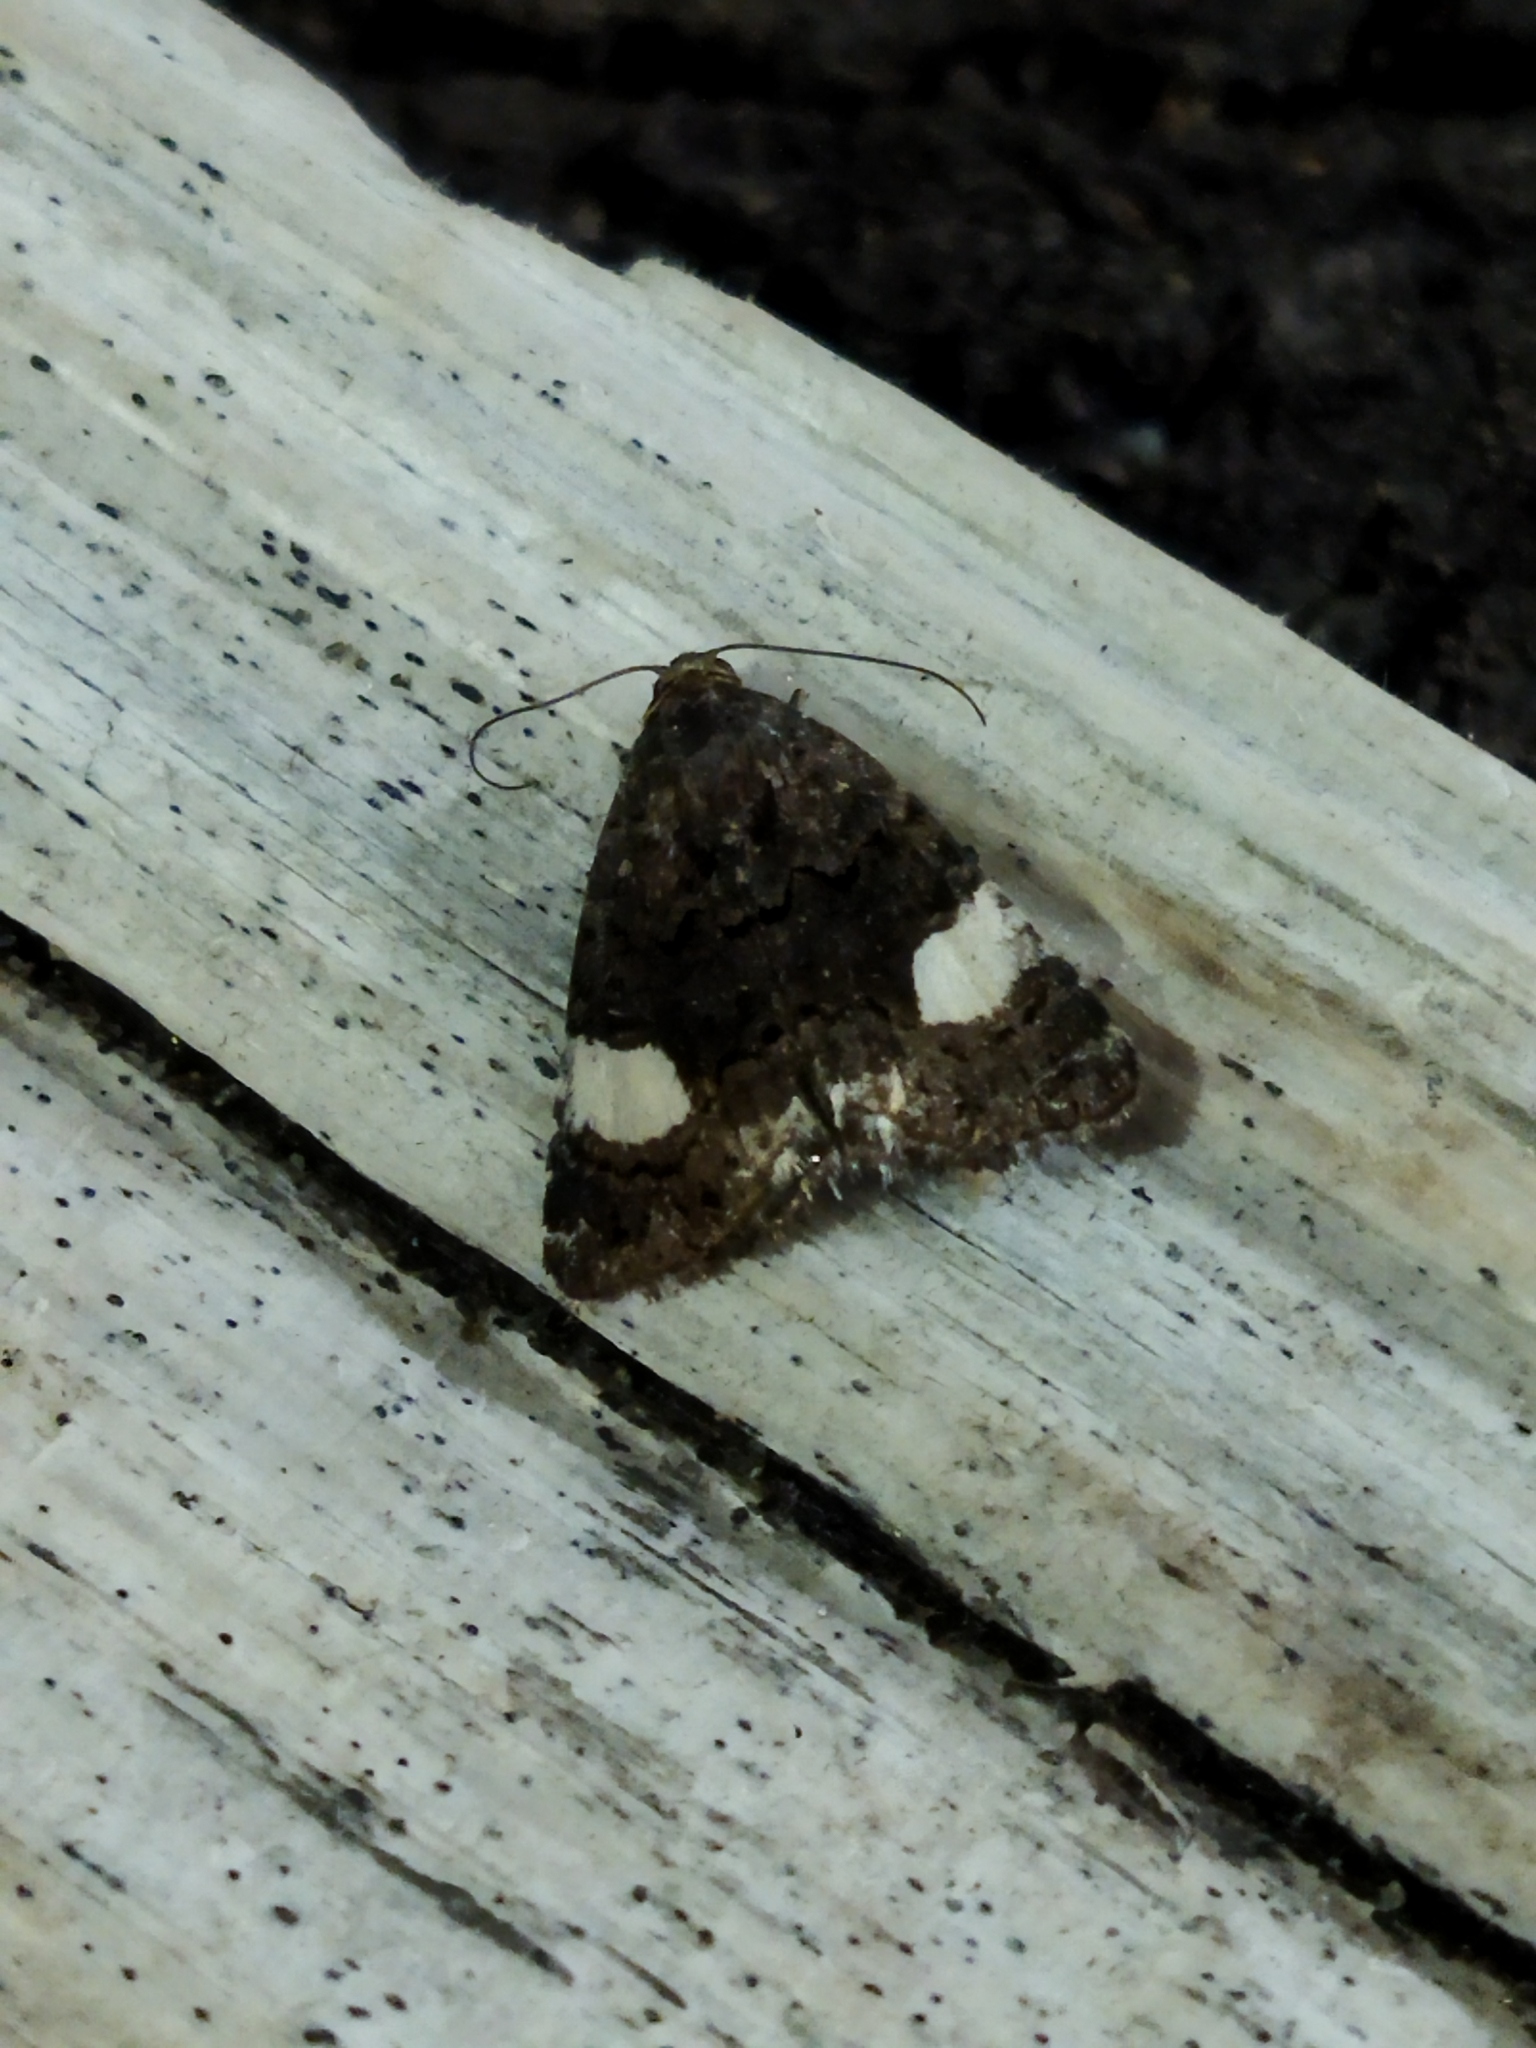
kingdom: Animalia
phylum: Arthropoda
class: Insecta
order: Lepidoptera
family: Erebidae
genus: Tyta
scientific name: Tyta luctuosa
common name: Four-spotted
